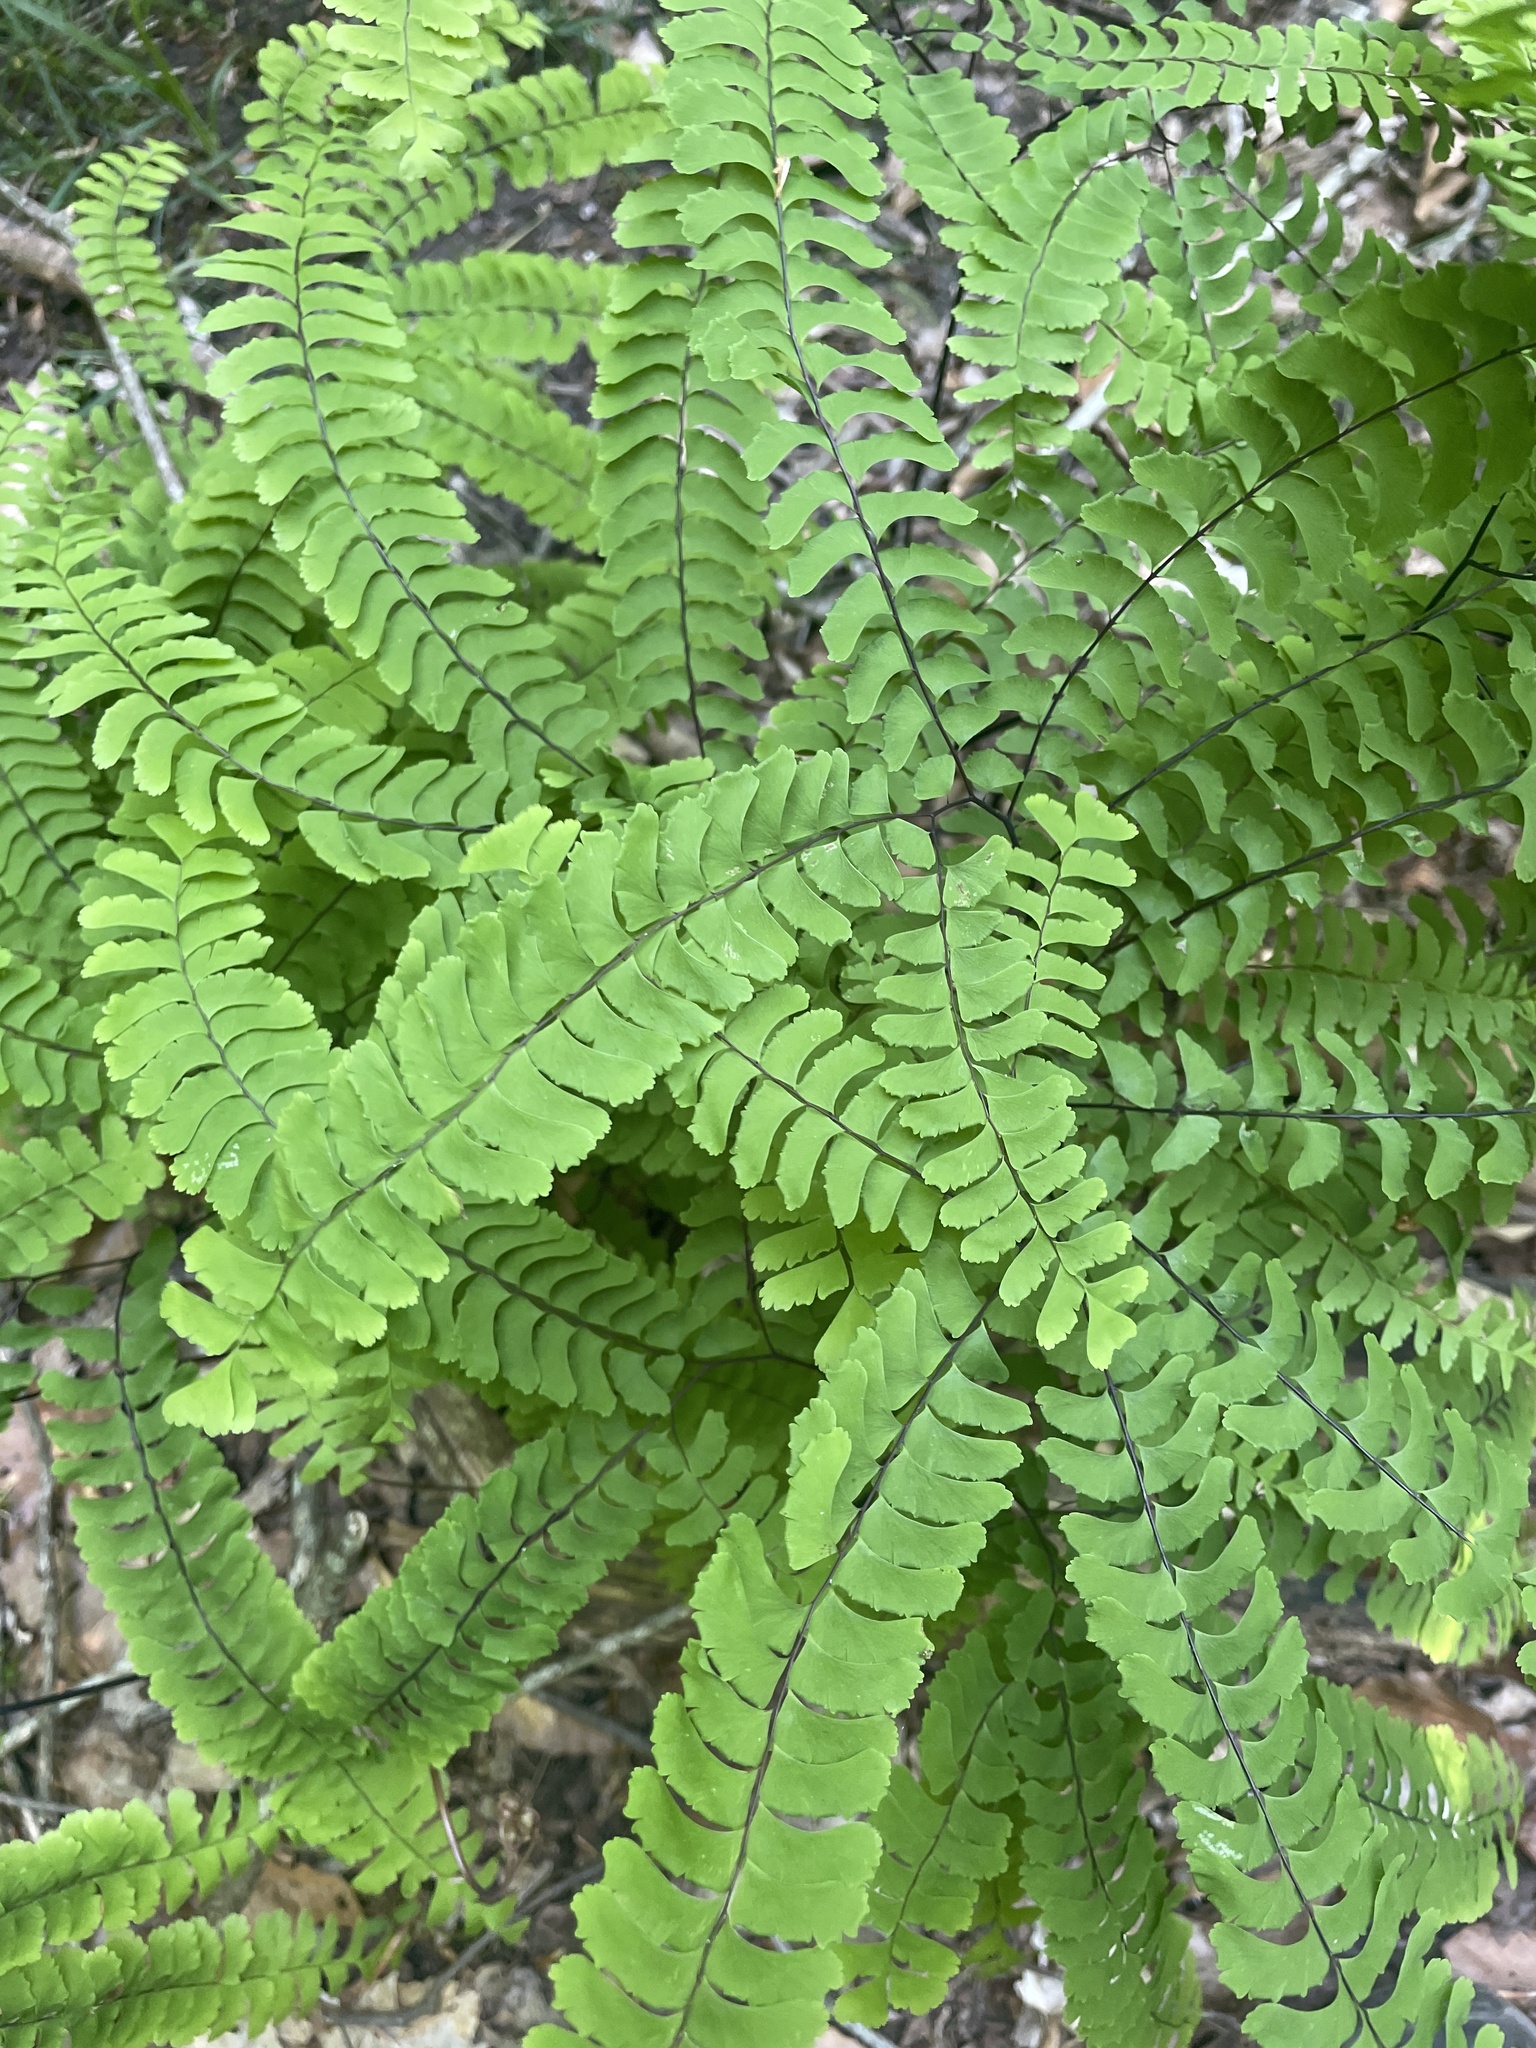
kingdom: Plantae
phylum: Tracheophyta
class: Polypodiopsida
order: Polypodiales
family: Pteridaceae
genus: Adiantum
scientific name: Adiantum pedatum
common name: Five-finger fern
